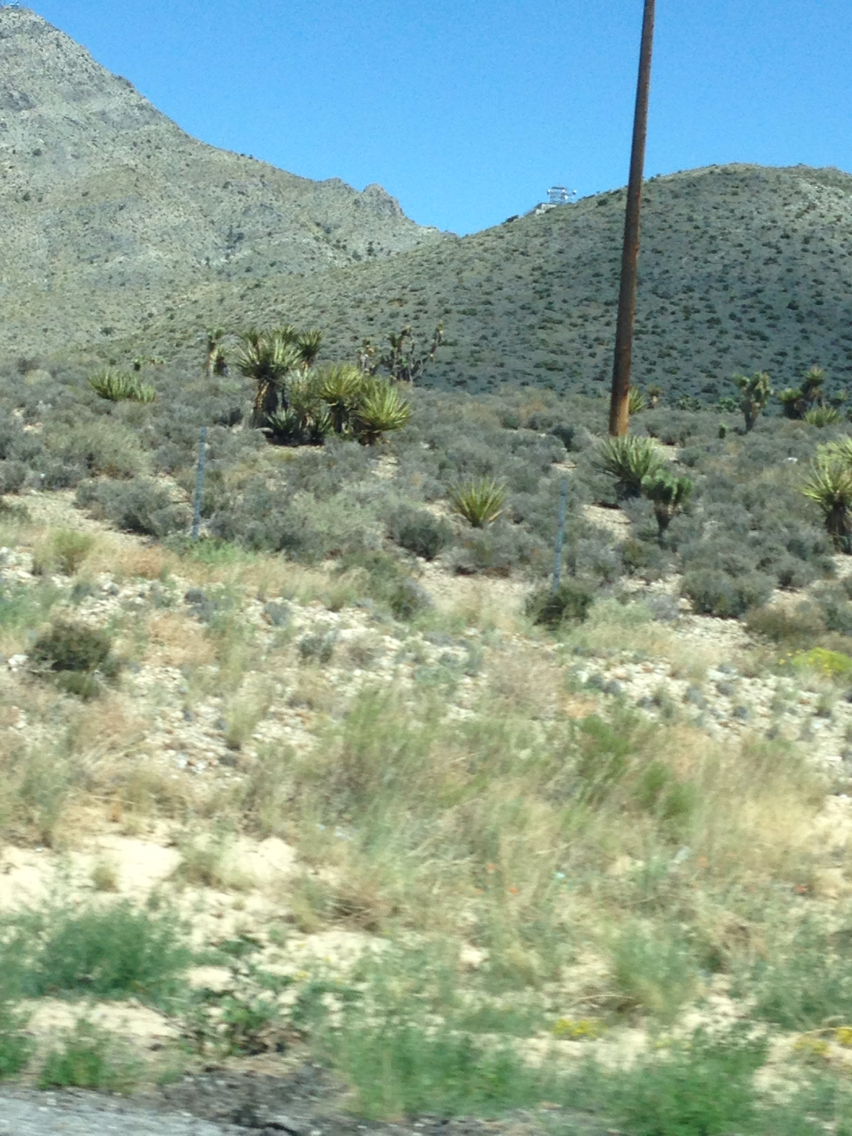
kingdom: Plantae
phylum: Tracheophyta
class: Liliopsida
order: Asparagales
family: Asparagaceae
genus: Yucca
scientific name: Yucca schidigera
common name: Mojave yucca
